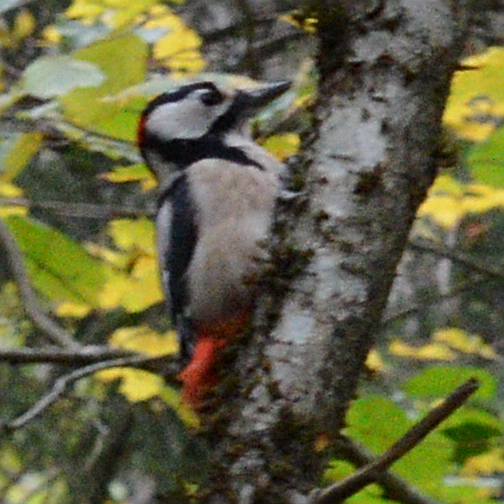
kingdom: Animalia
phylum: Chordata
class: Aves
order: Piciformes
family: Picidae
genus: Dendrocopos
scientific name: Dendrocopos major
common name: Great spotted woodpecker
